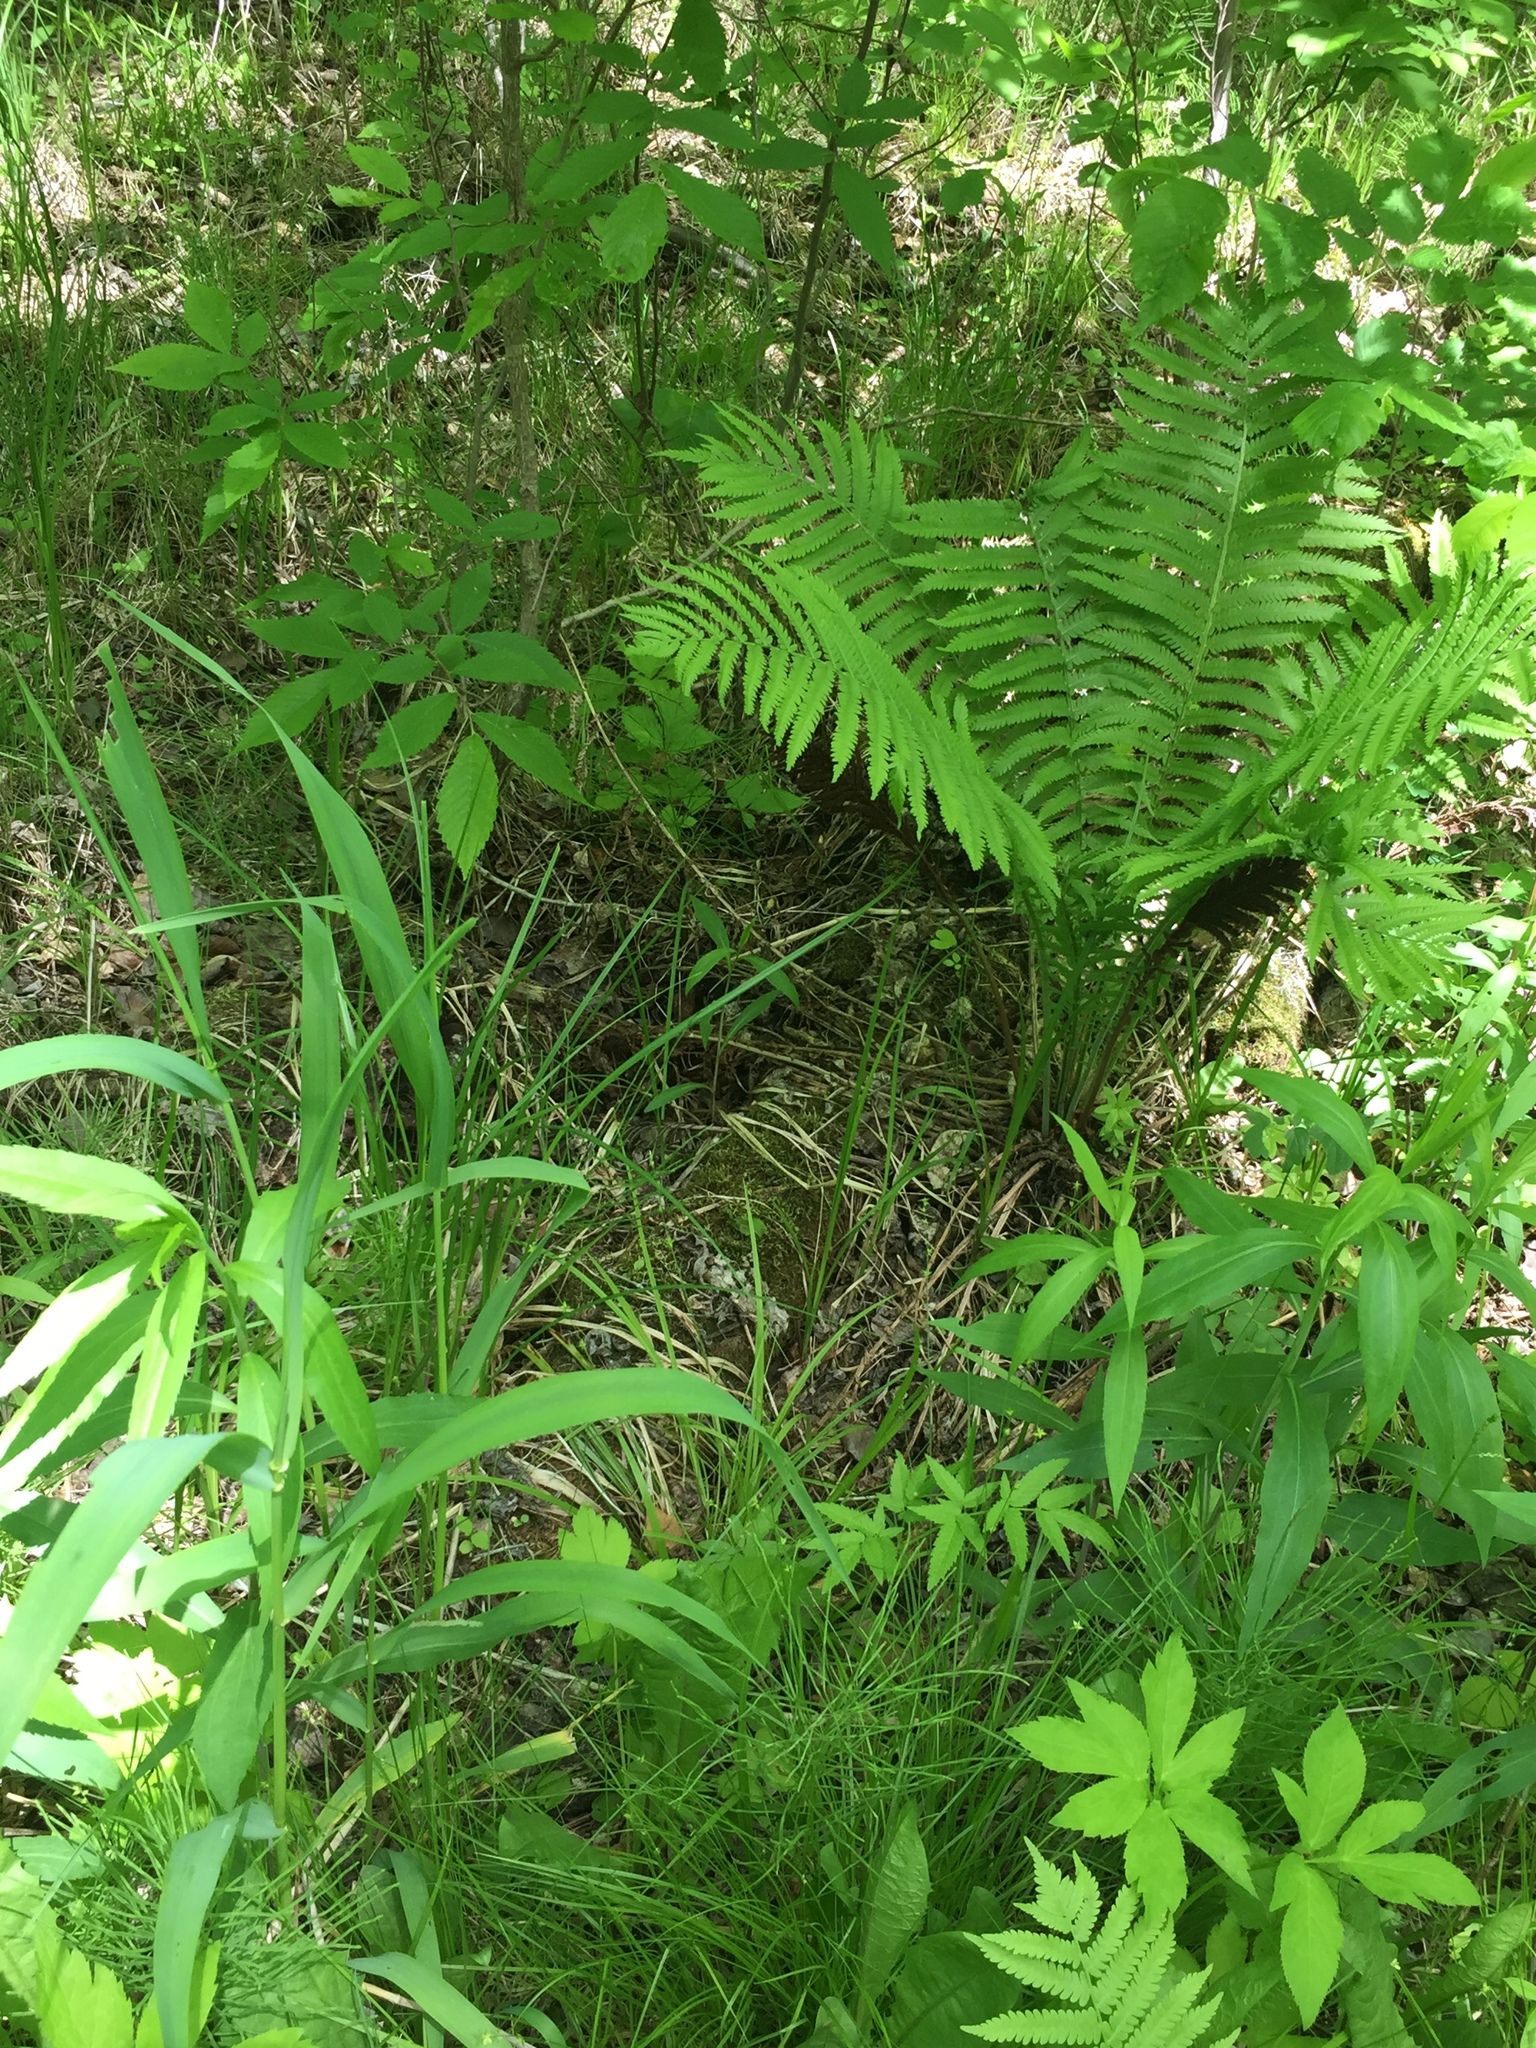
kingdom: Plantae
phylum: Tracheophyta
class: Polypodiopsida
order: Polypodiales
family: Onocleaceae
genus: Matteuccia
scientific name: Matteuccia struthiopteris
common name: Ostrich fern
